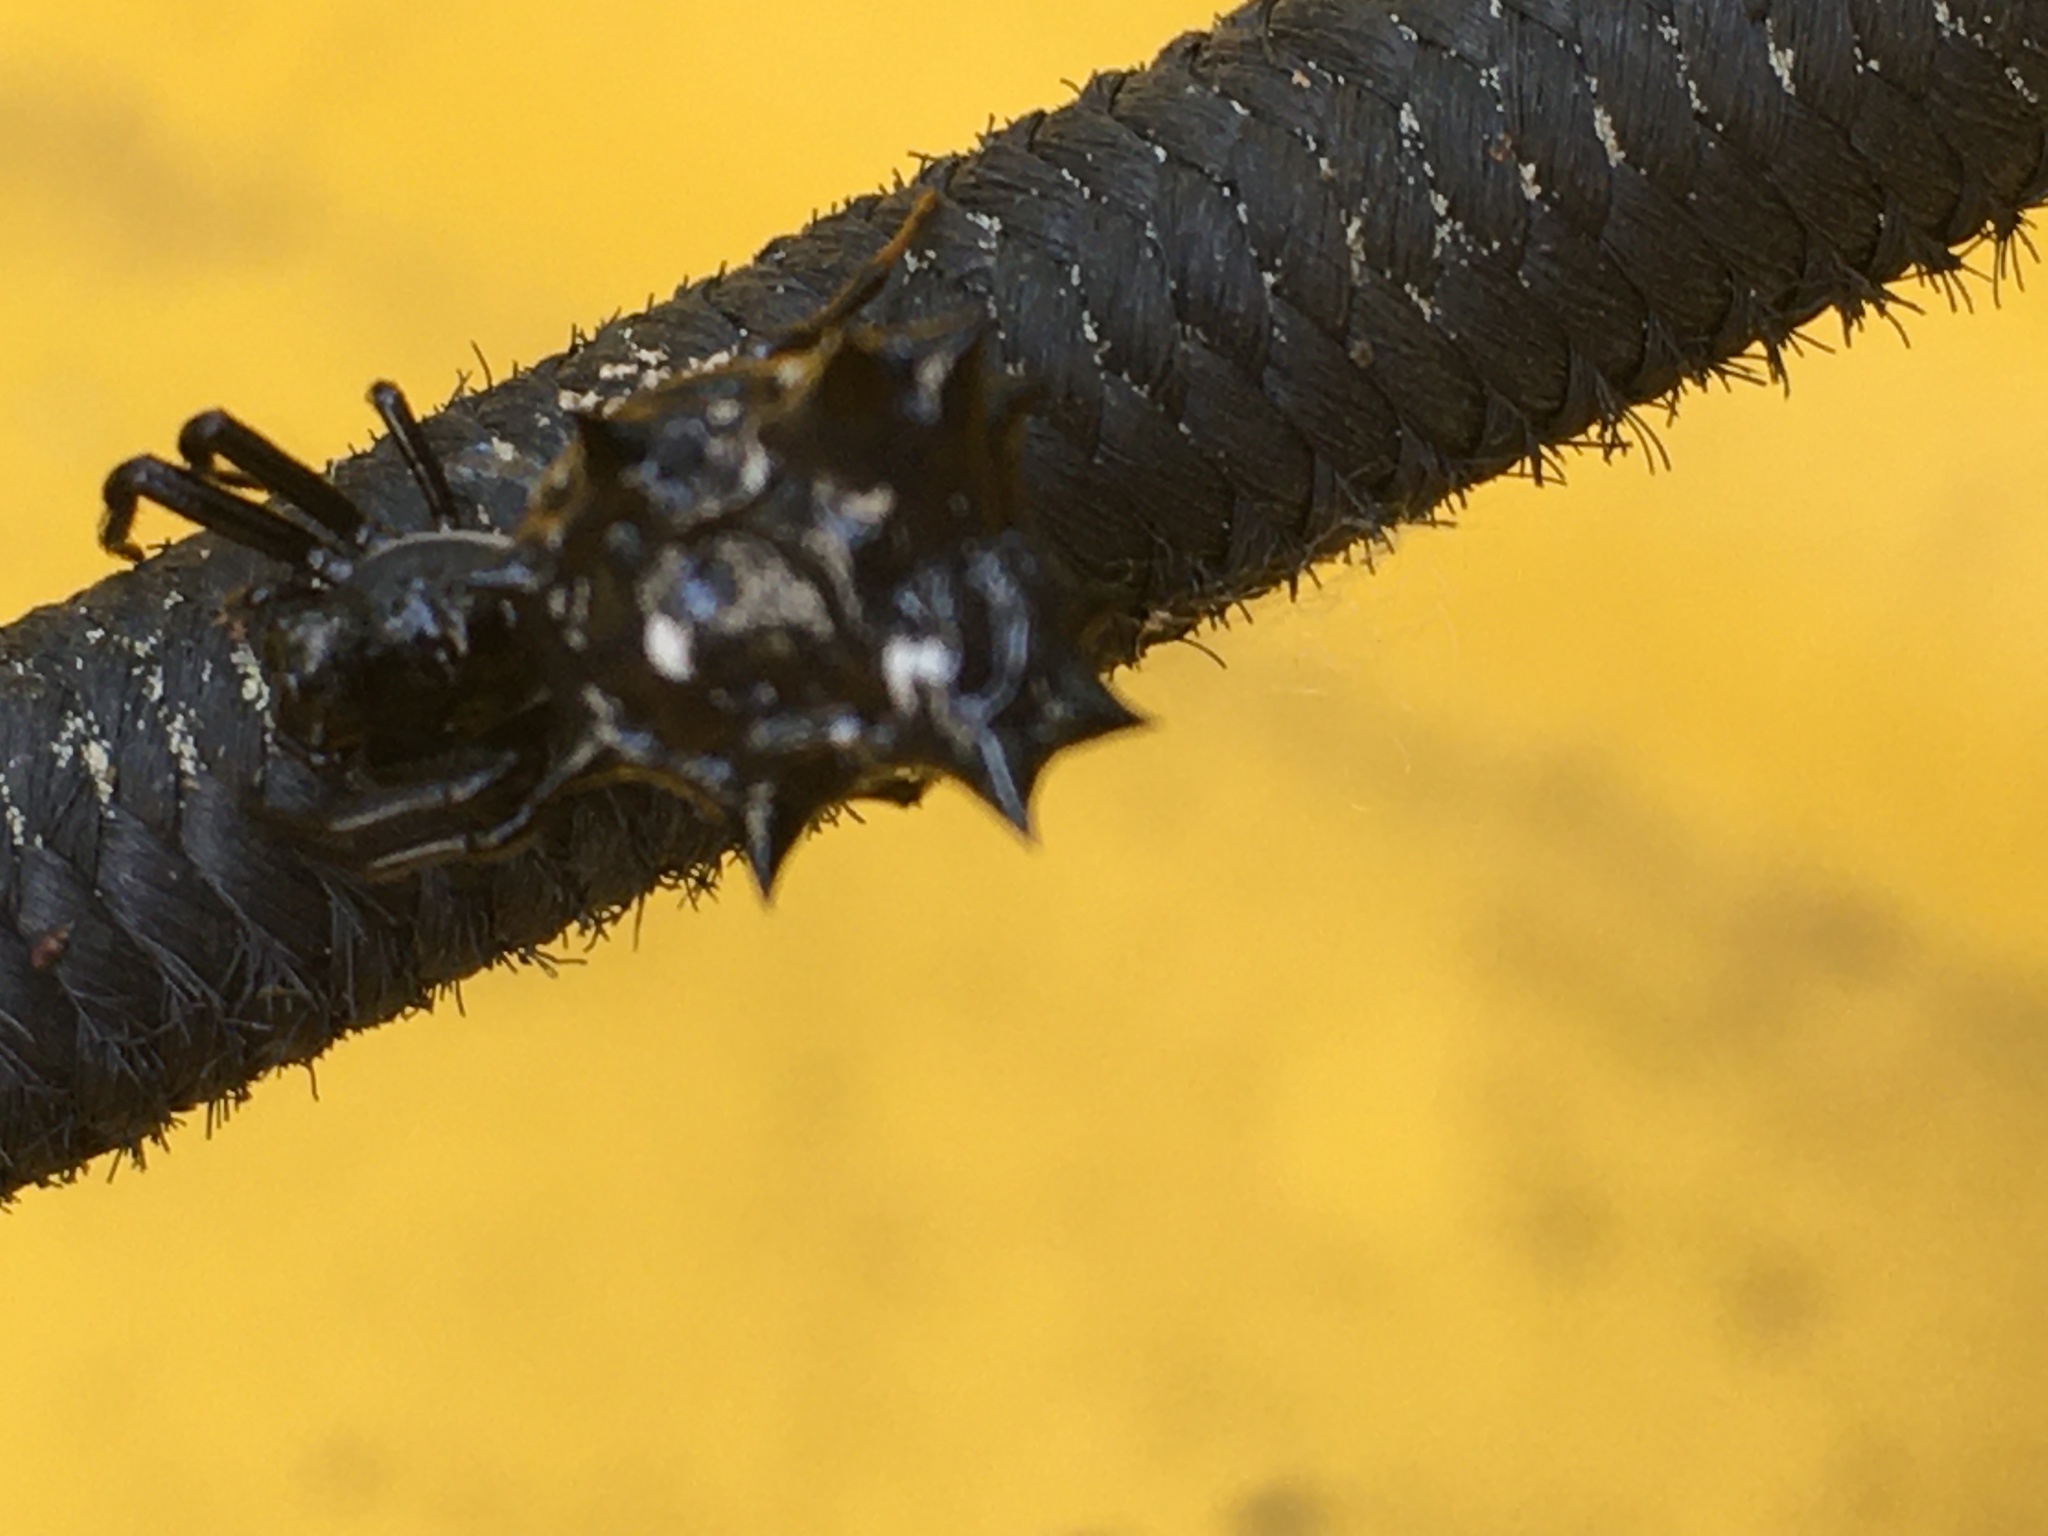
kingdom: Animalia
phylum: Arthropoda
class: Arachnida
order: Araneae
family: Araneidae
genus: Micrathena
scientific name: Micrathena gracilis
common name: Orb weavers
